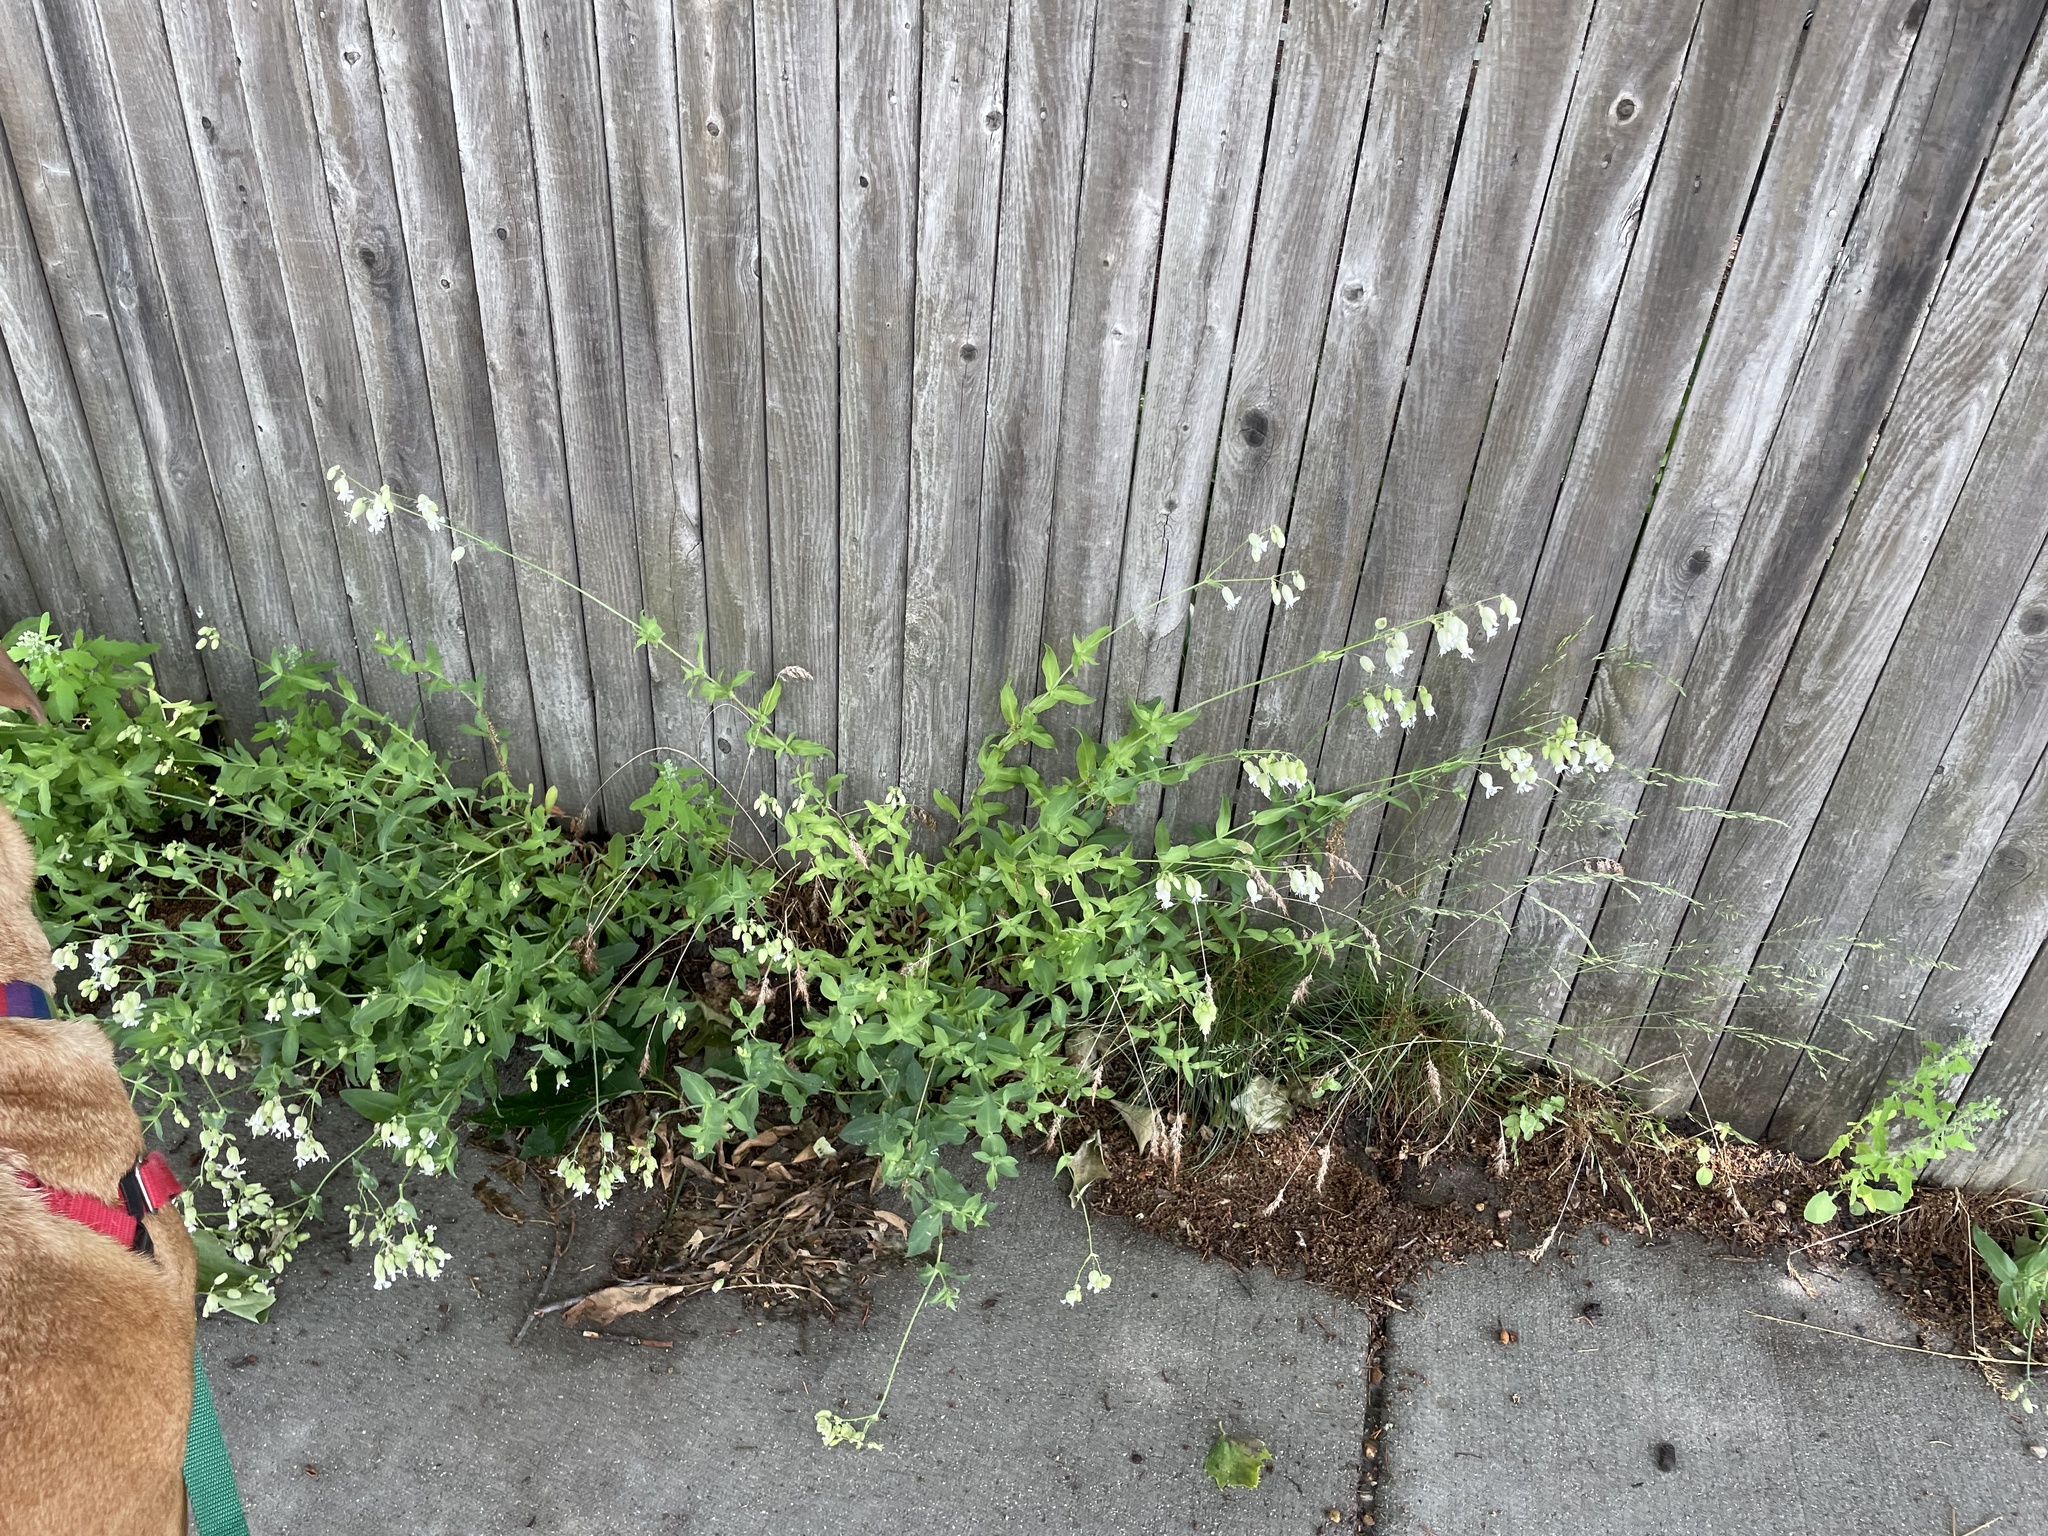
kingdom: Plantae
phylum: Tracheophyta
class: Magnoliopsida
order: Caryophyllales
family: Caryophyllaceae
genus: Silene
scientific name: Silene vulgaris
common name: Bladder campion
